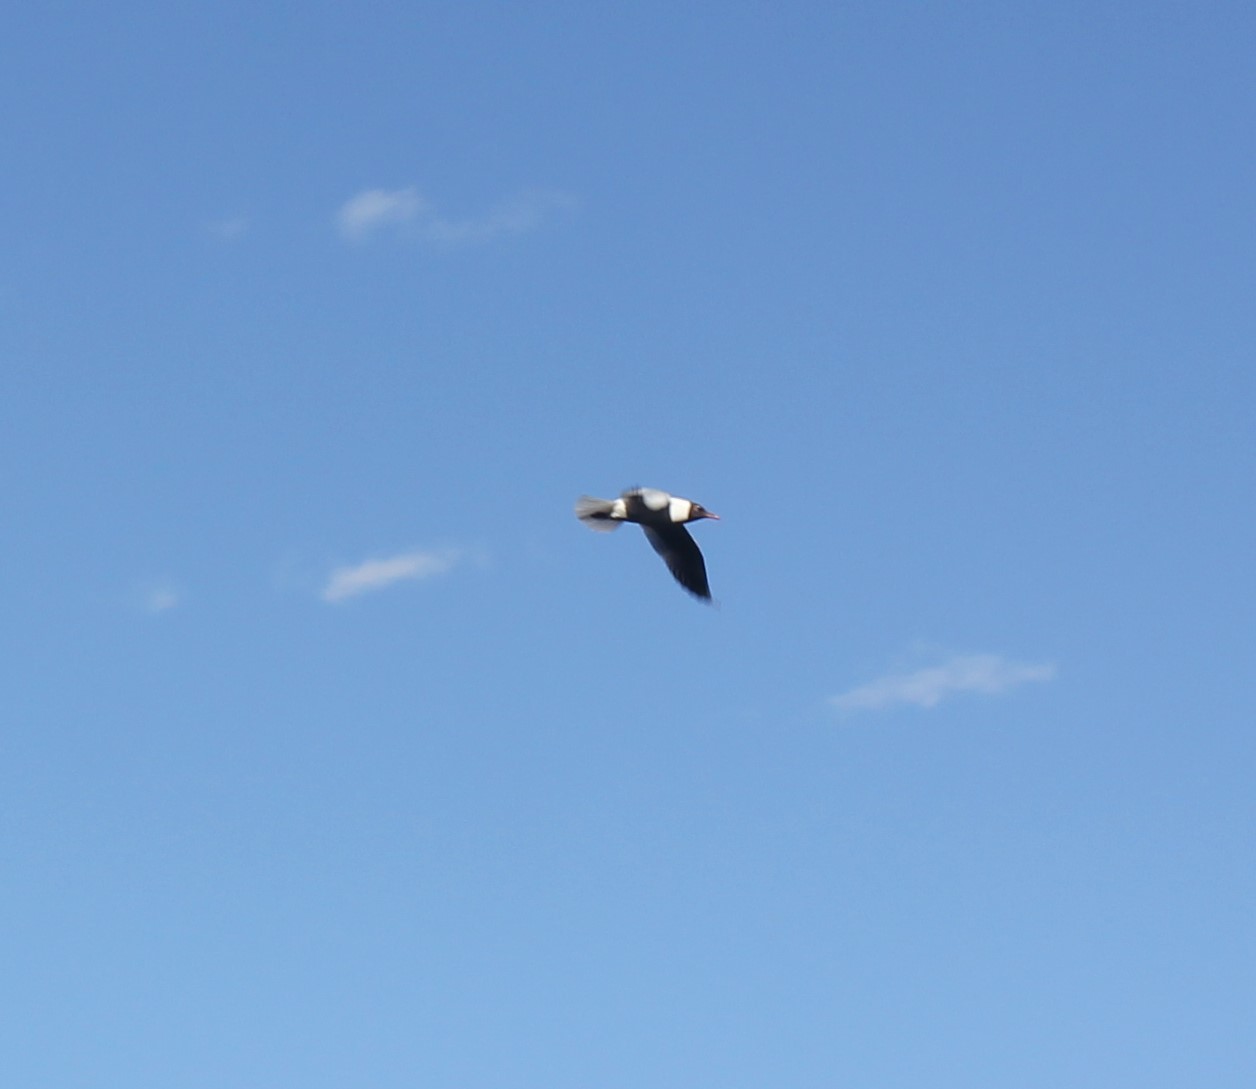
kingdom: Animalia
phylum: Chordata
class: Aves
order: Charadriiformes
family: Laridae
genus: Chroicocephalus
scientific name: Chroicocephalus ridibundus
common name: Black-headed gull
